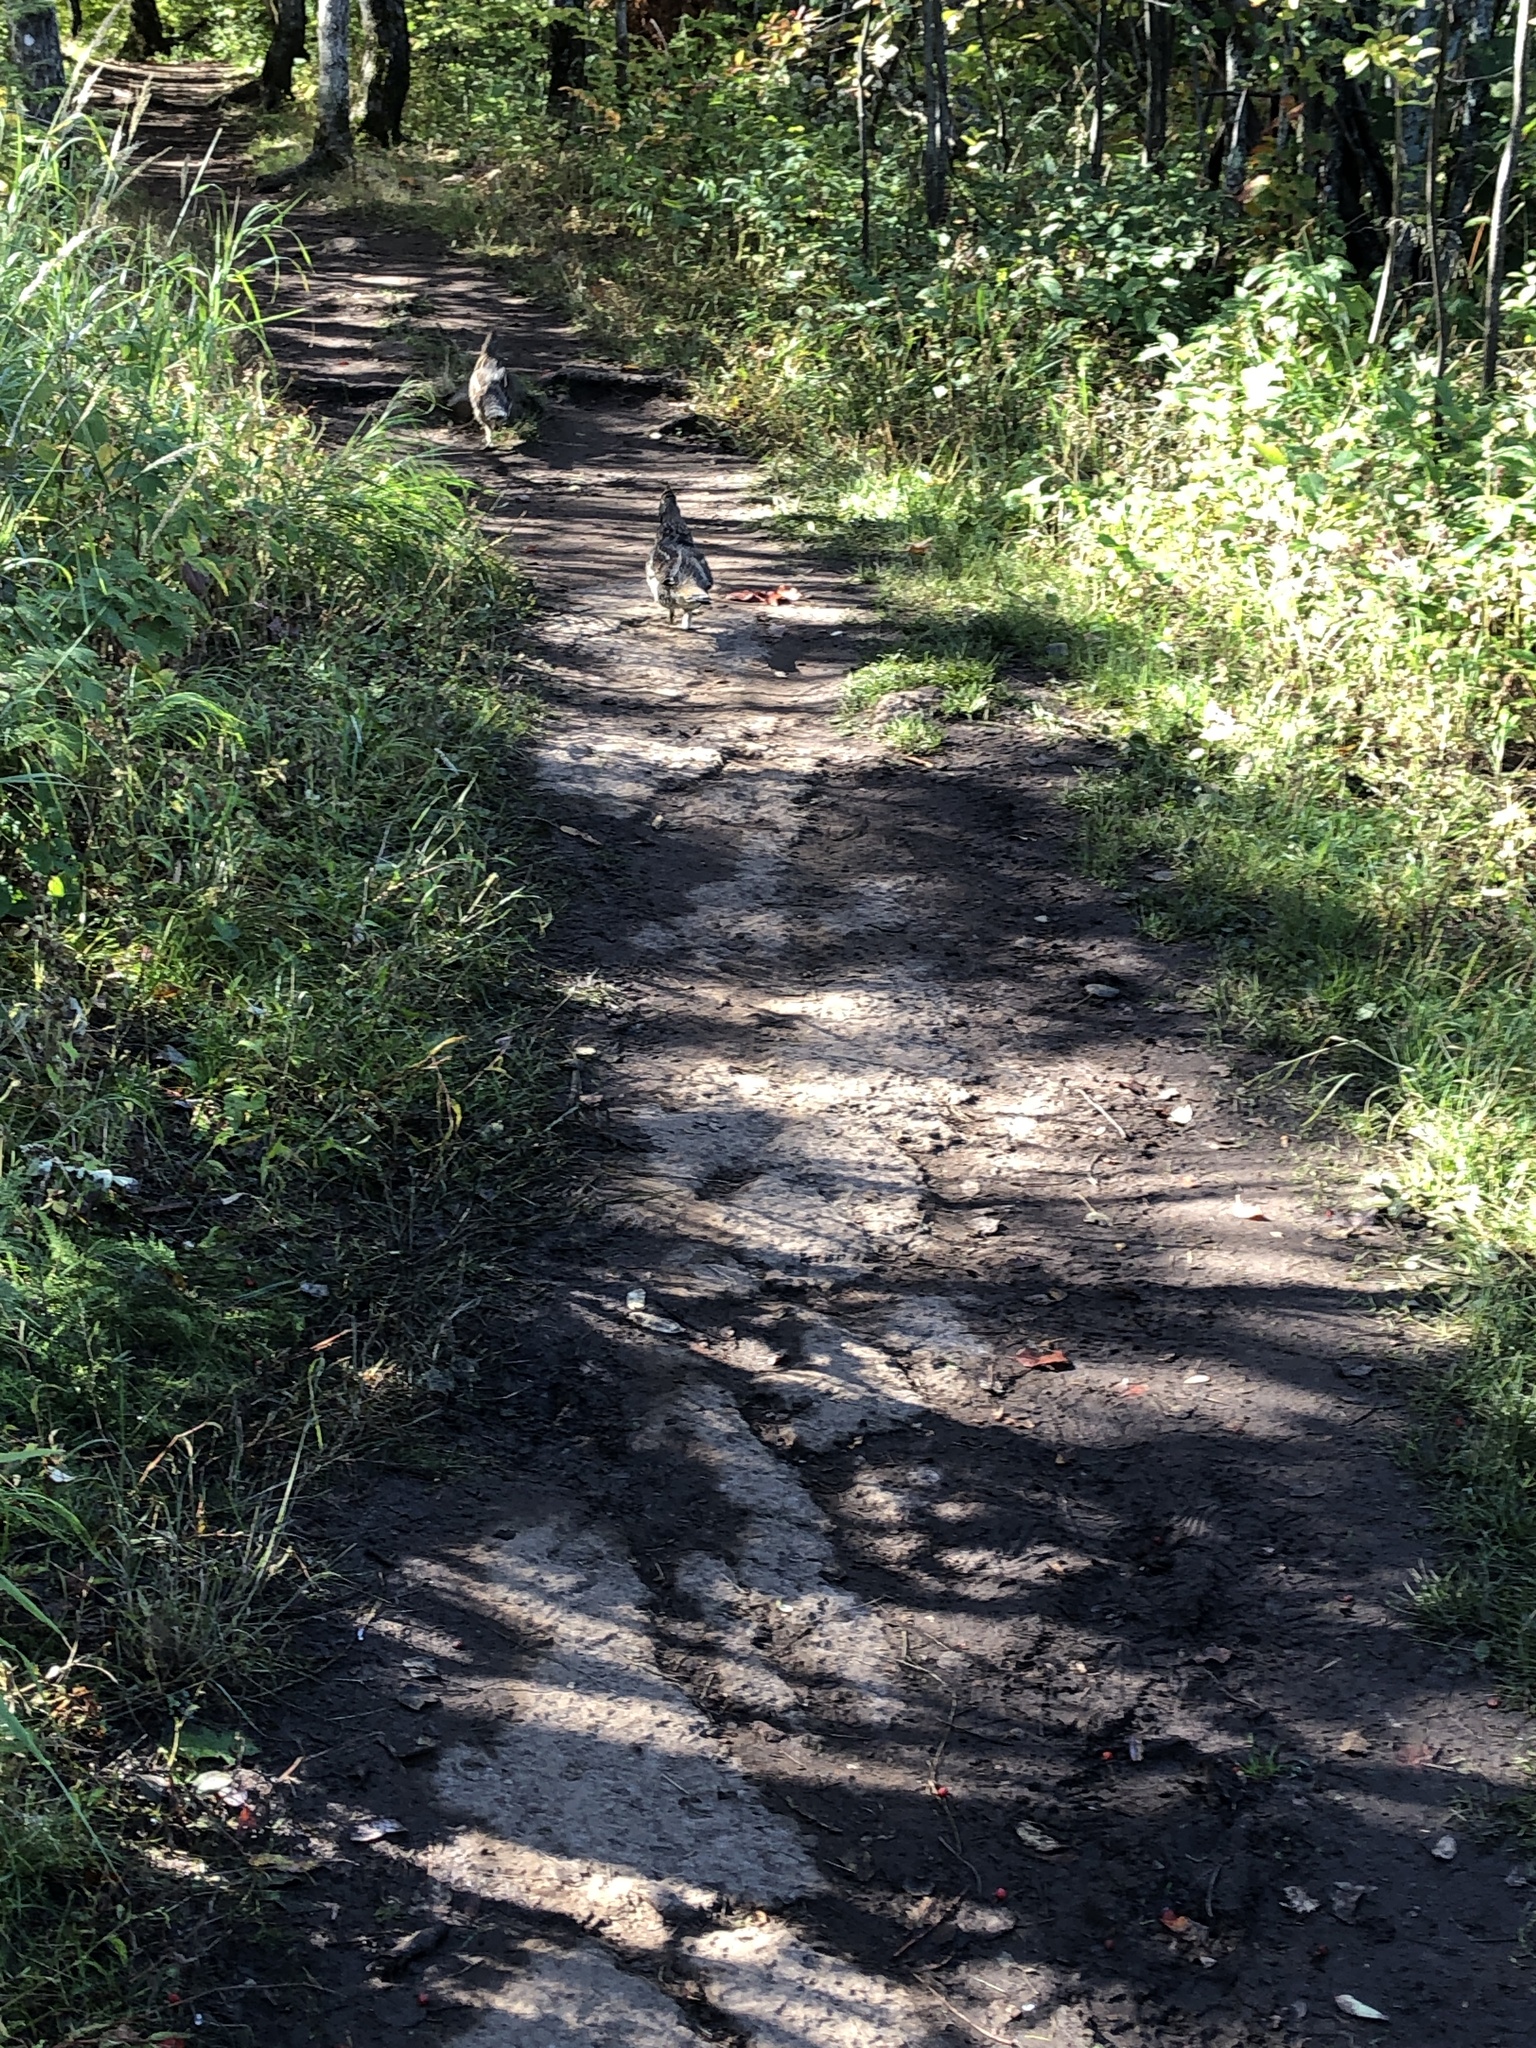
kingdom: Animalia
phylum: Chordata
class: Aves
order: Galliformes
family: Phasianidae
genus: Bonasa
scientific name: Bonasa umbellus
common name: Ruffed grouse
